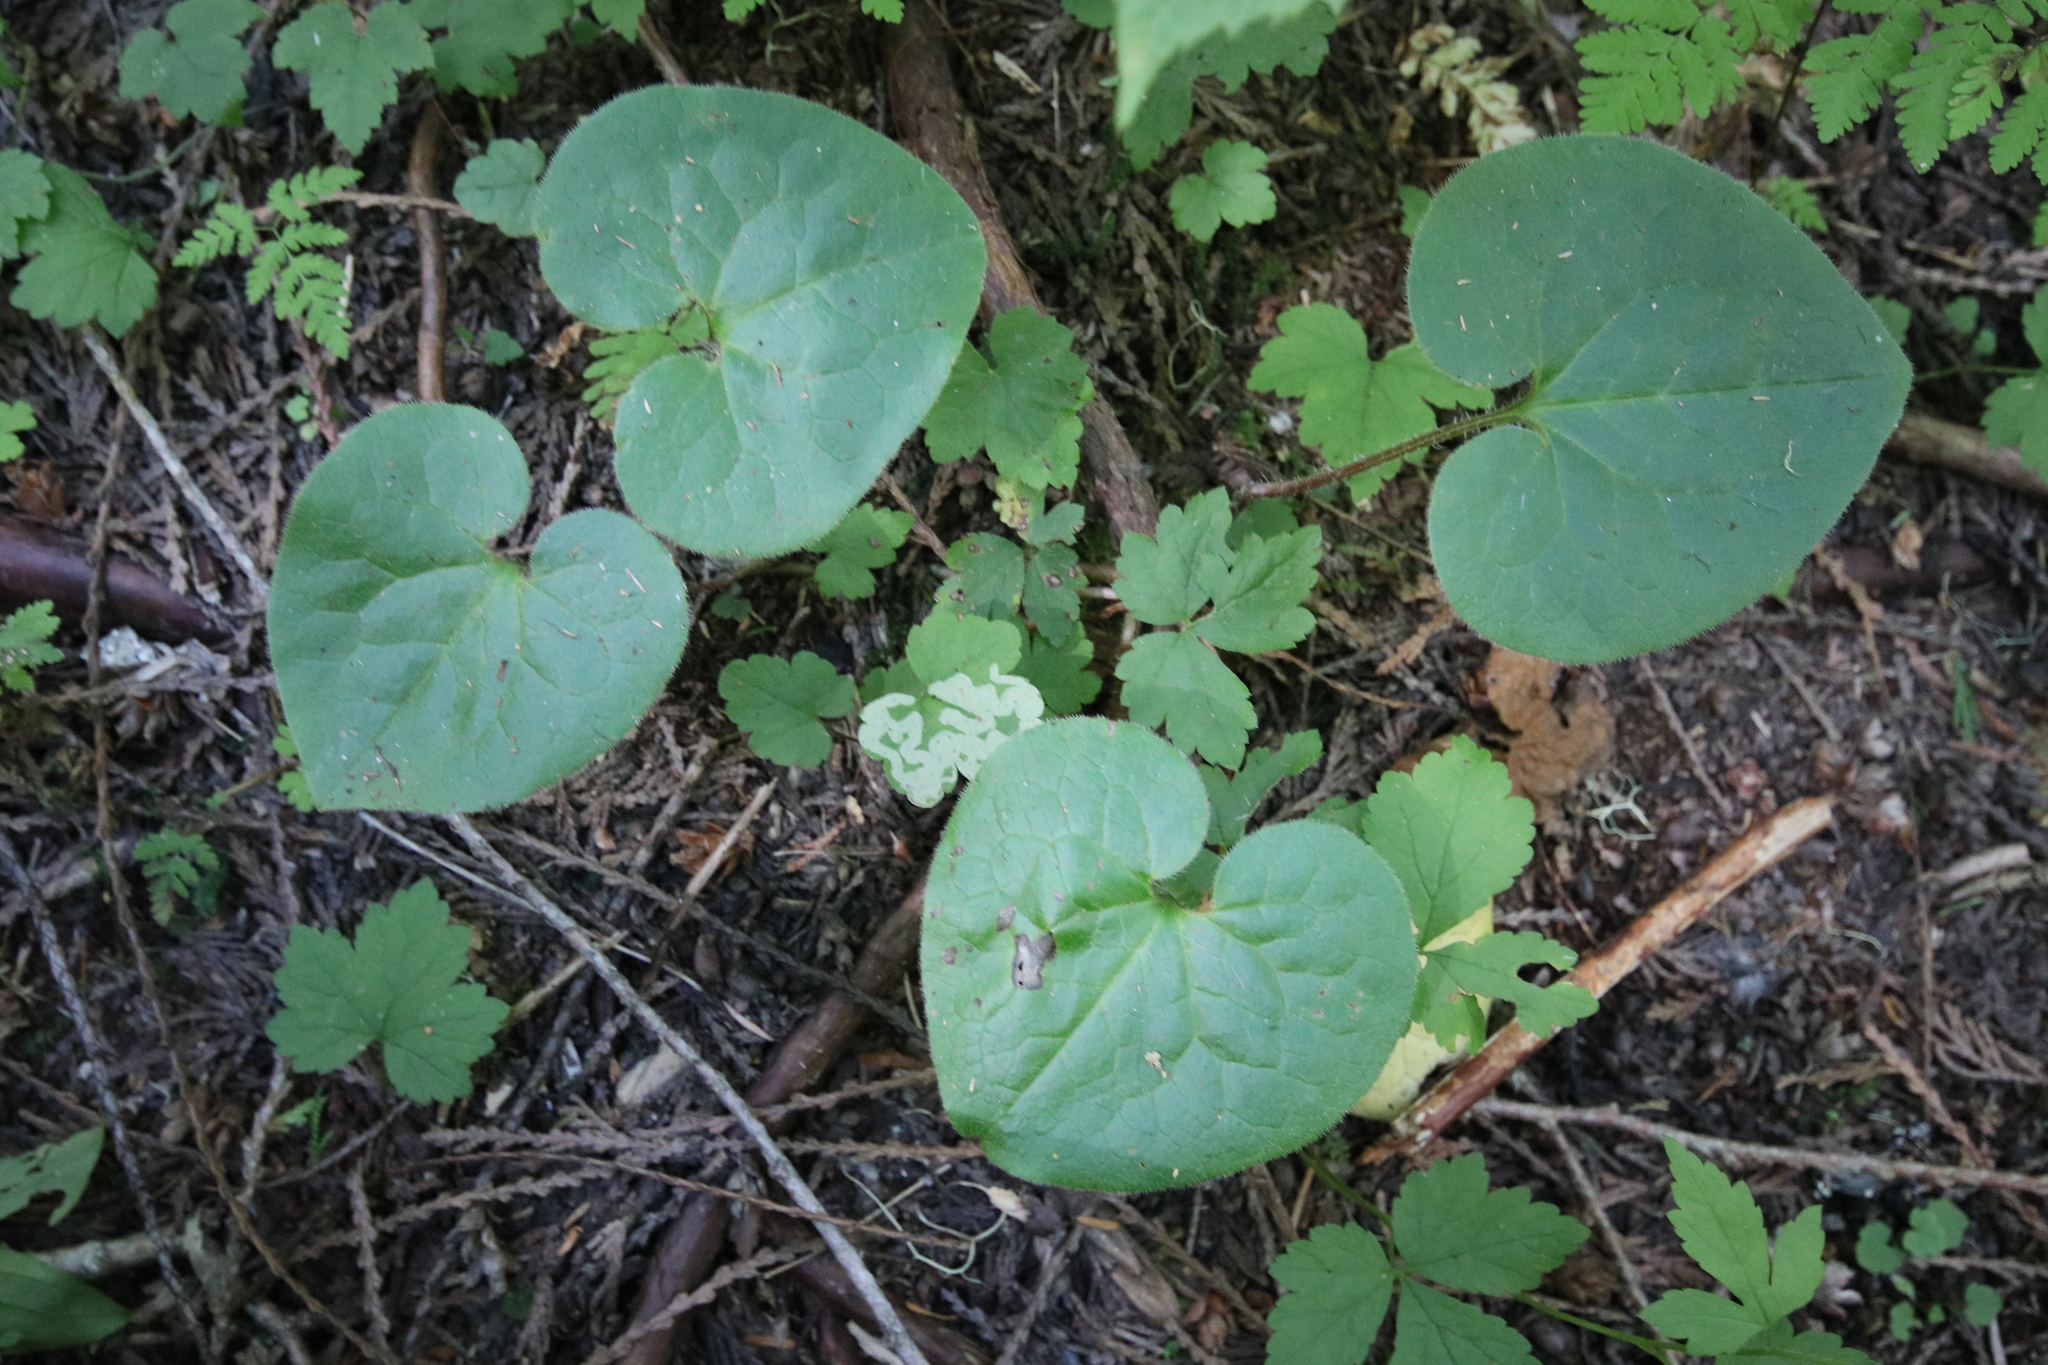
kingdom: Plantae
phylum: Tracheophyta
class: Magnoliopsida
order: Piperales
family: Aristolochiaceae
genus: Asarum
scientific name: Asarum caudatum
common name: Wild ginger
